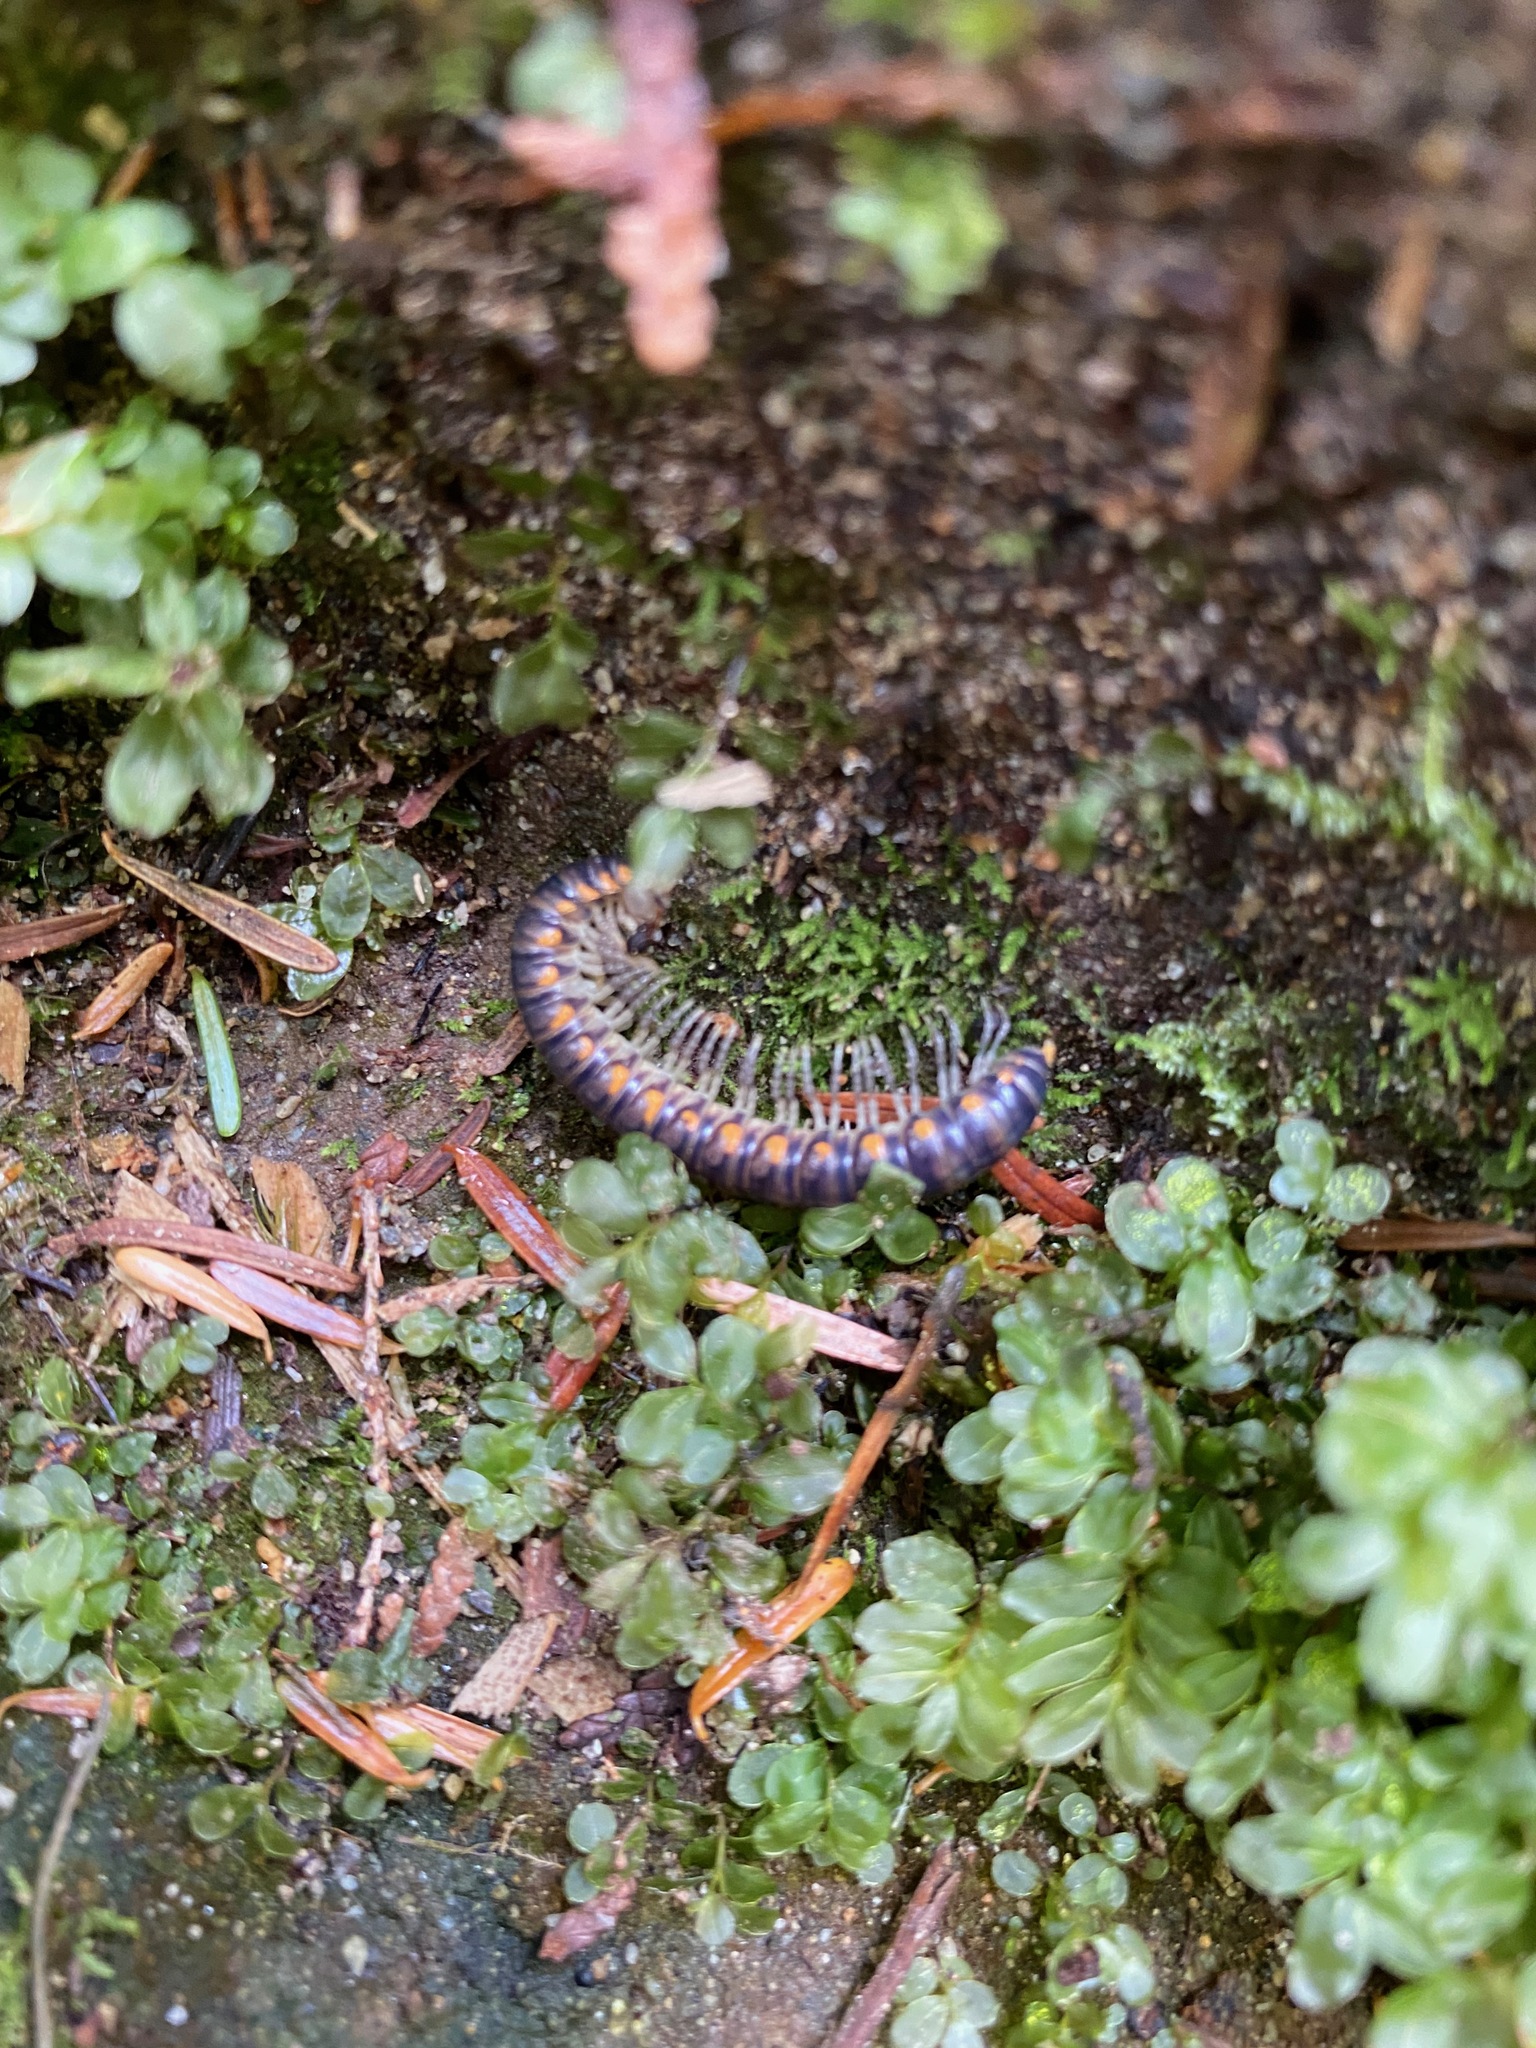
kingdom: Animalia
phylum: Arthropoda
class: Diplopoda
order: Polydesmida
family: Xystodesmidae
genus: Harpaphe
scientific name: Harpaphe haydeniana
